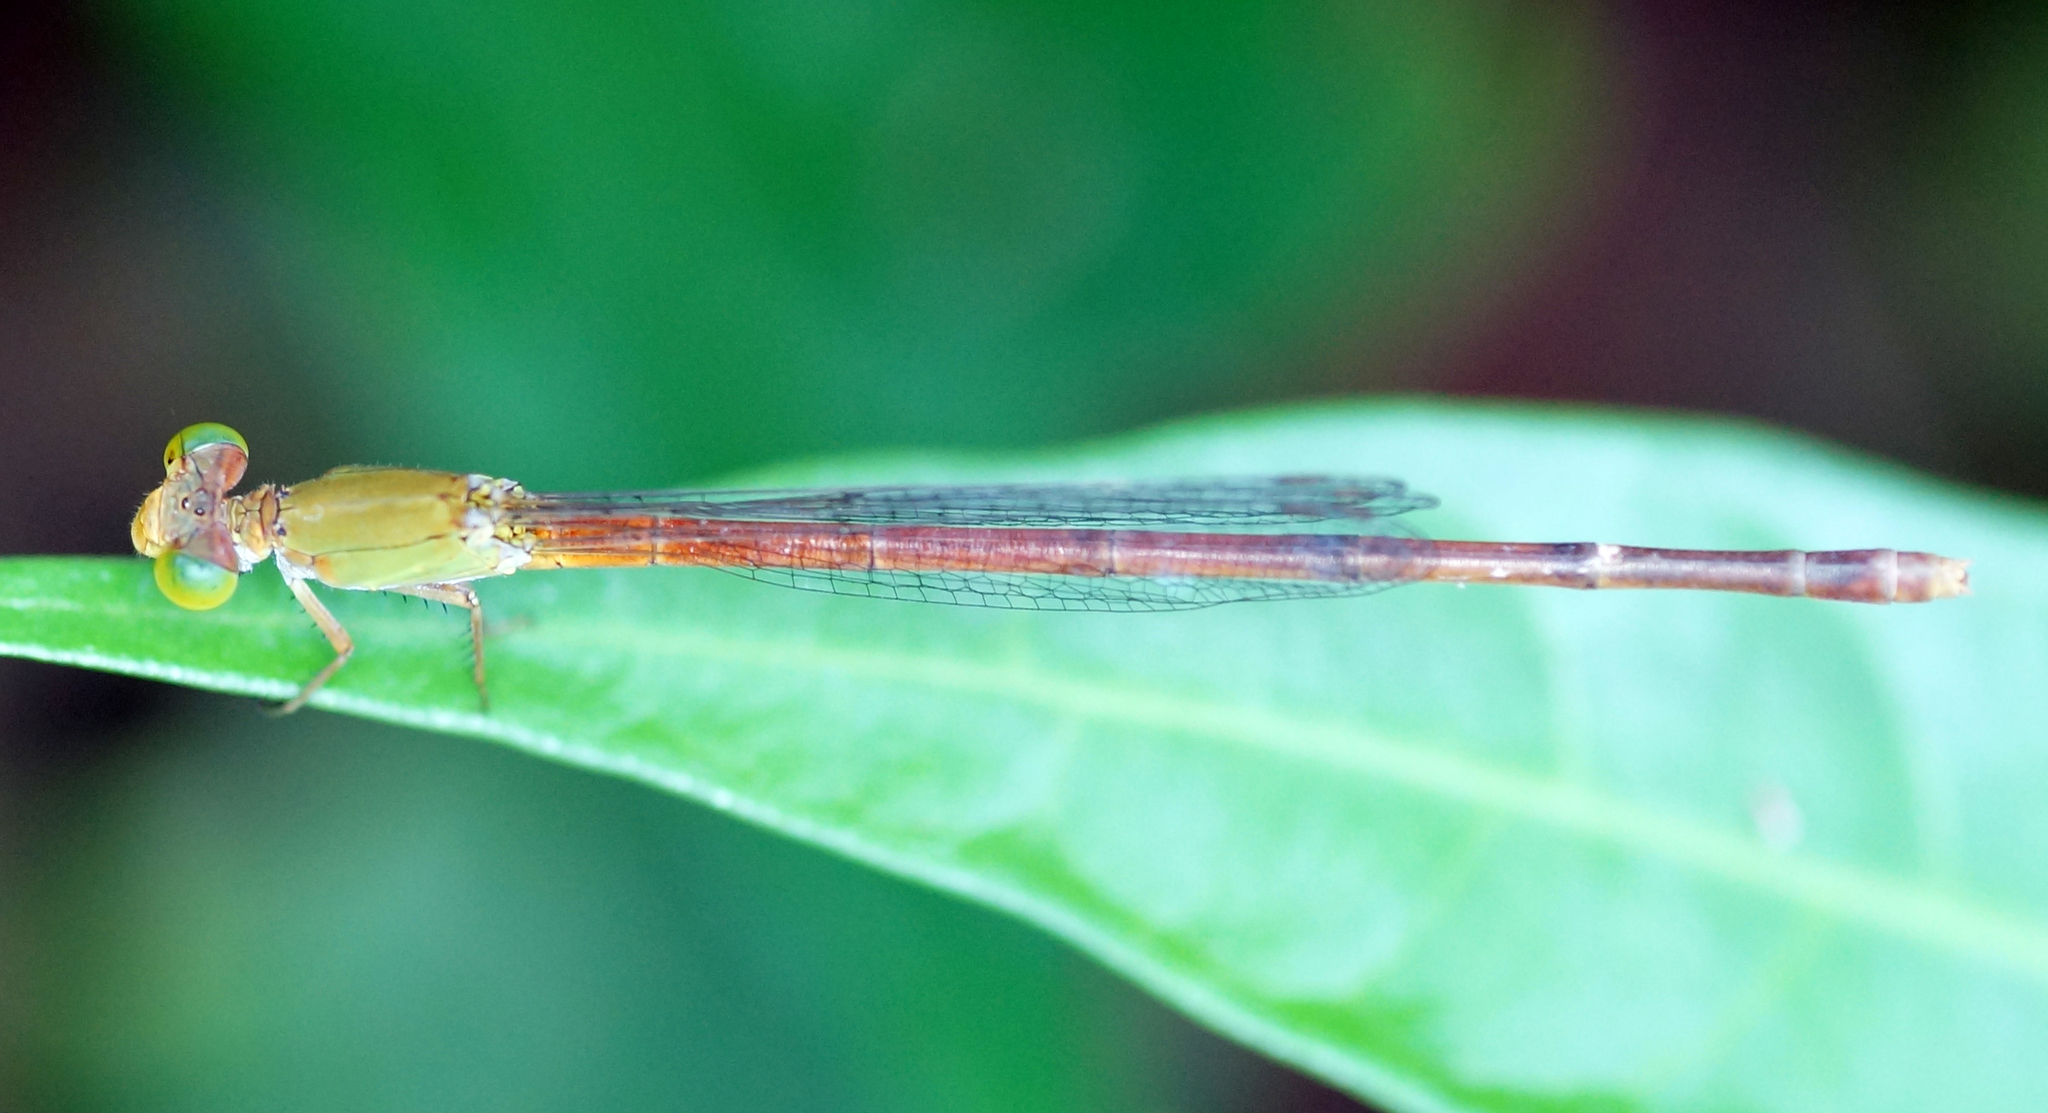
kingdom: Animalia
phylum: Arthropoda
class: Insecta
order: Odonata
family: Coenagrionidae
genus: Ceriagrion
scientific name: Ceriagrion cerinorubellum
